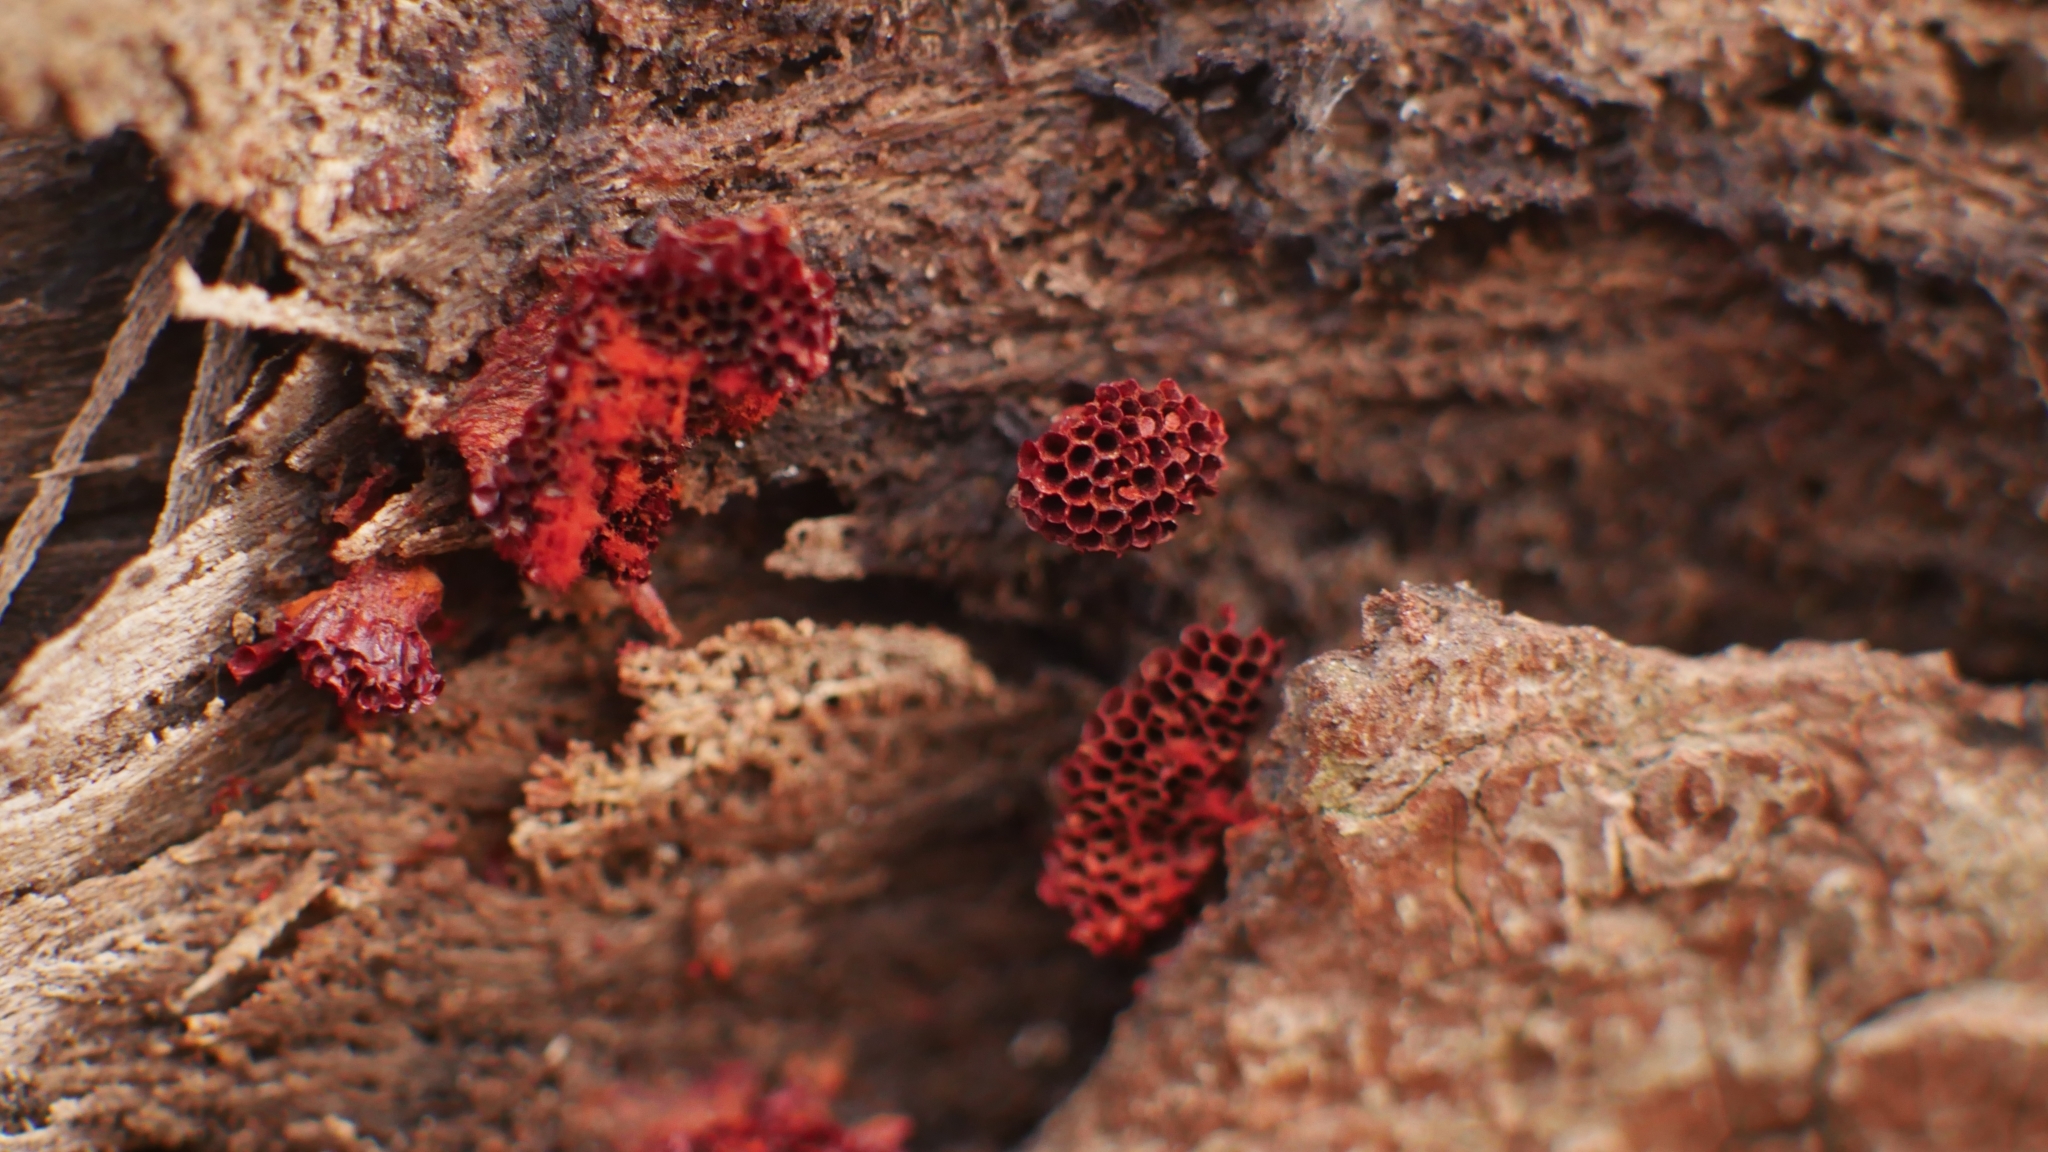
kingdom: Protozoa
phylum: Mycetozoa
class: Myxomycetes
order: Trichiales
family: Trichiaceae
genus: Metatrichia
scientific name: Metatrichia vesparia
